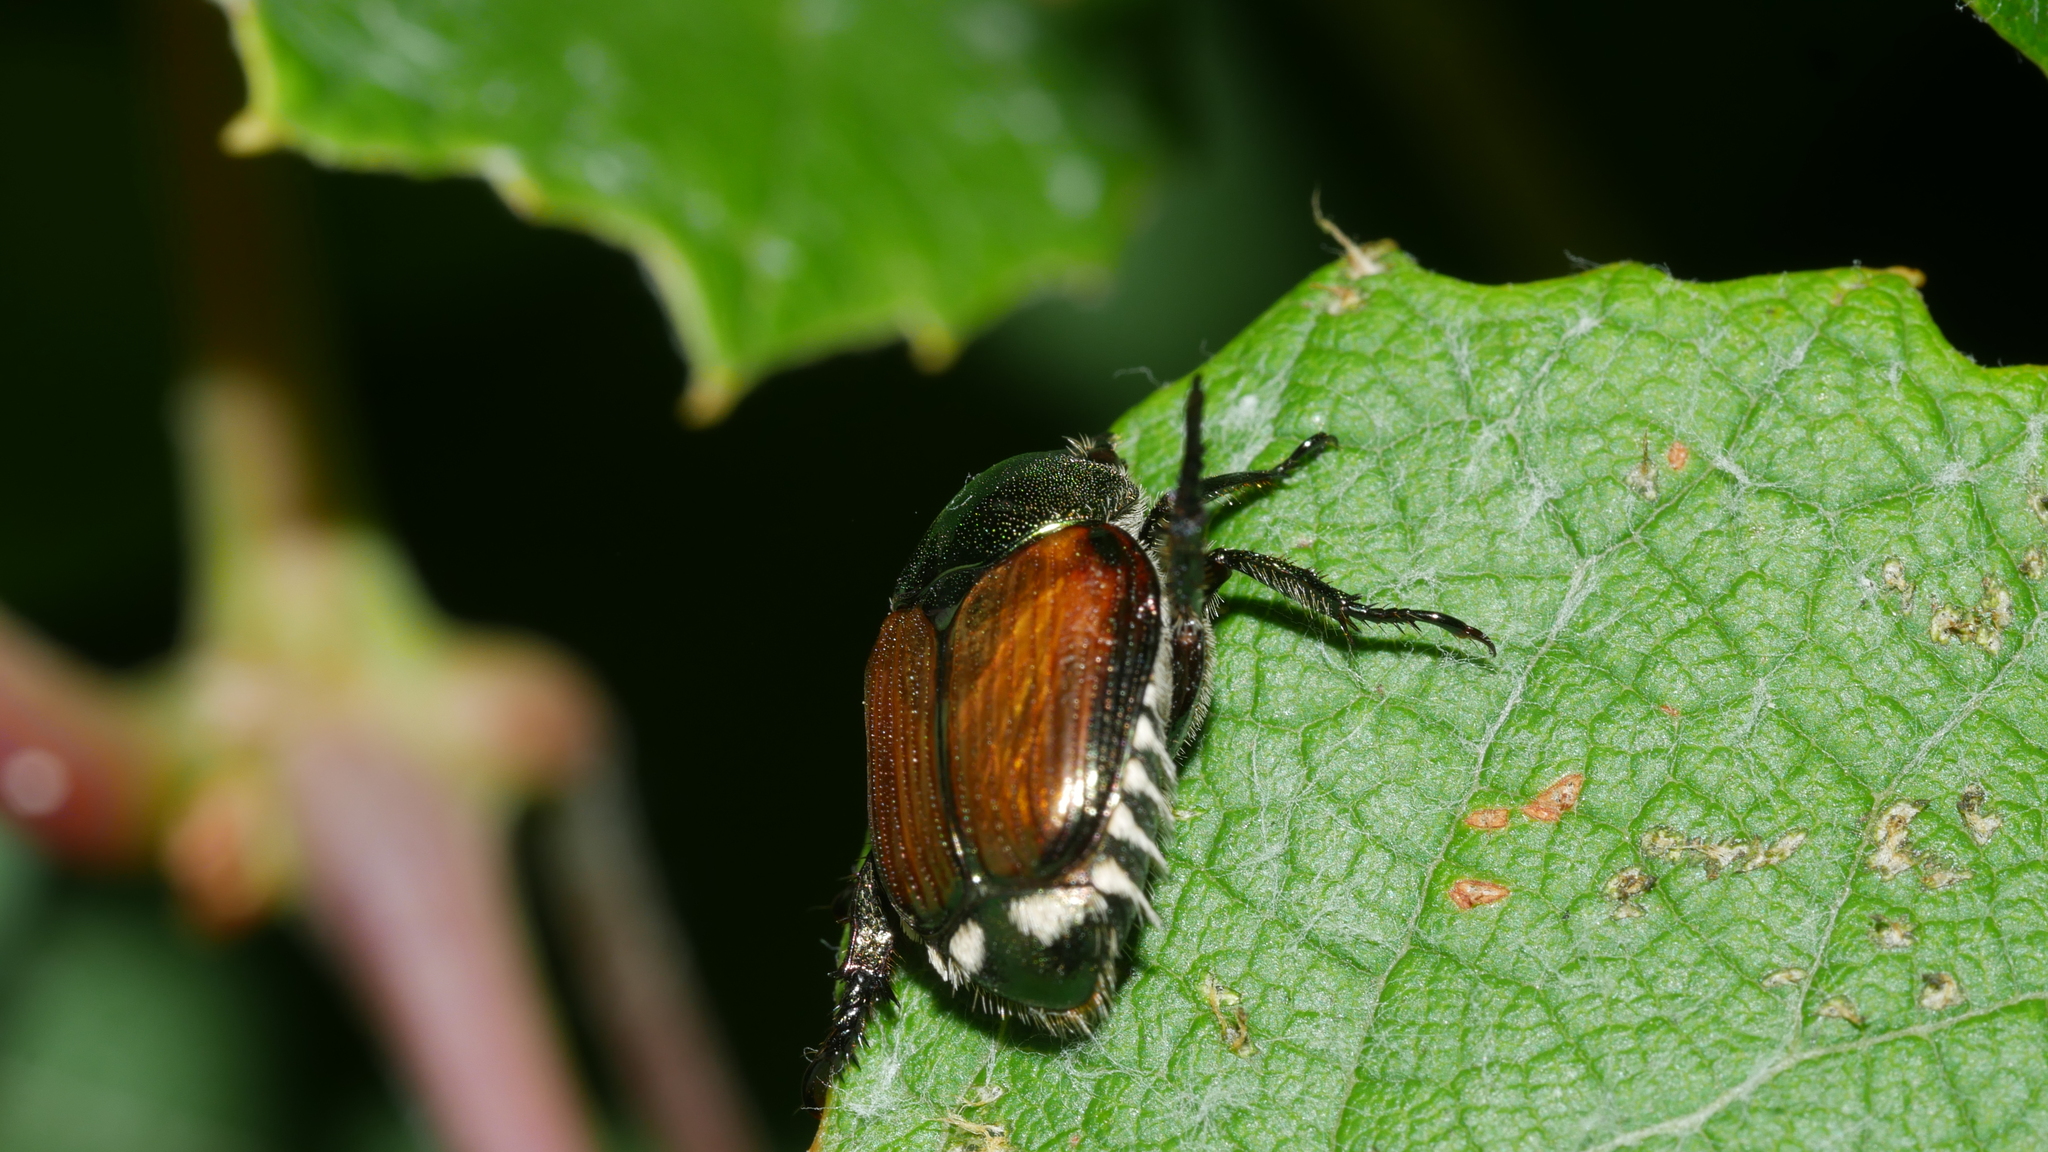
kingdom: Animalia
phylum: Arthropoda
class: Insecta
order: Coleoptera
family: Scarabaeidae
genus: Popillia
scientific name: Popillia japonica
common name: Japanese beetle
